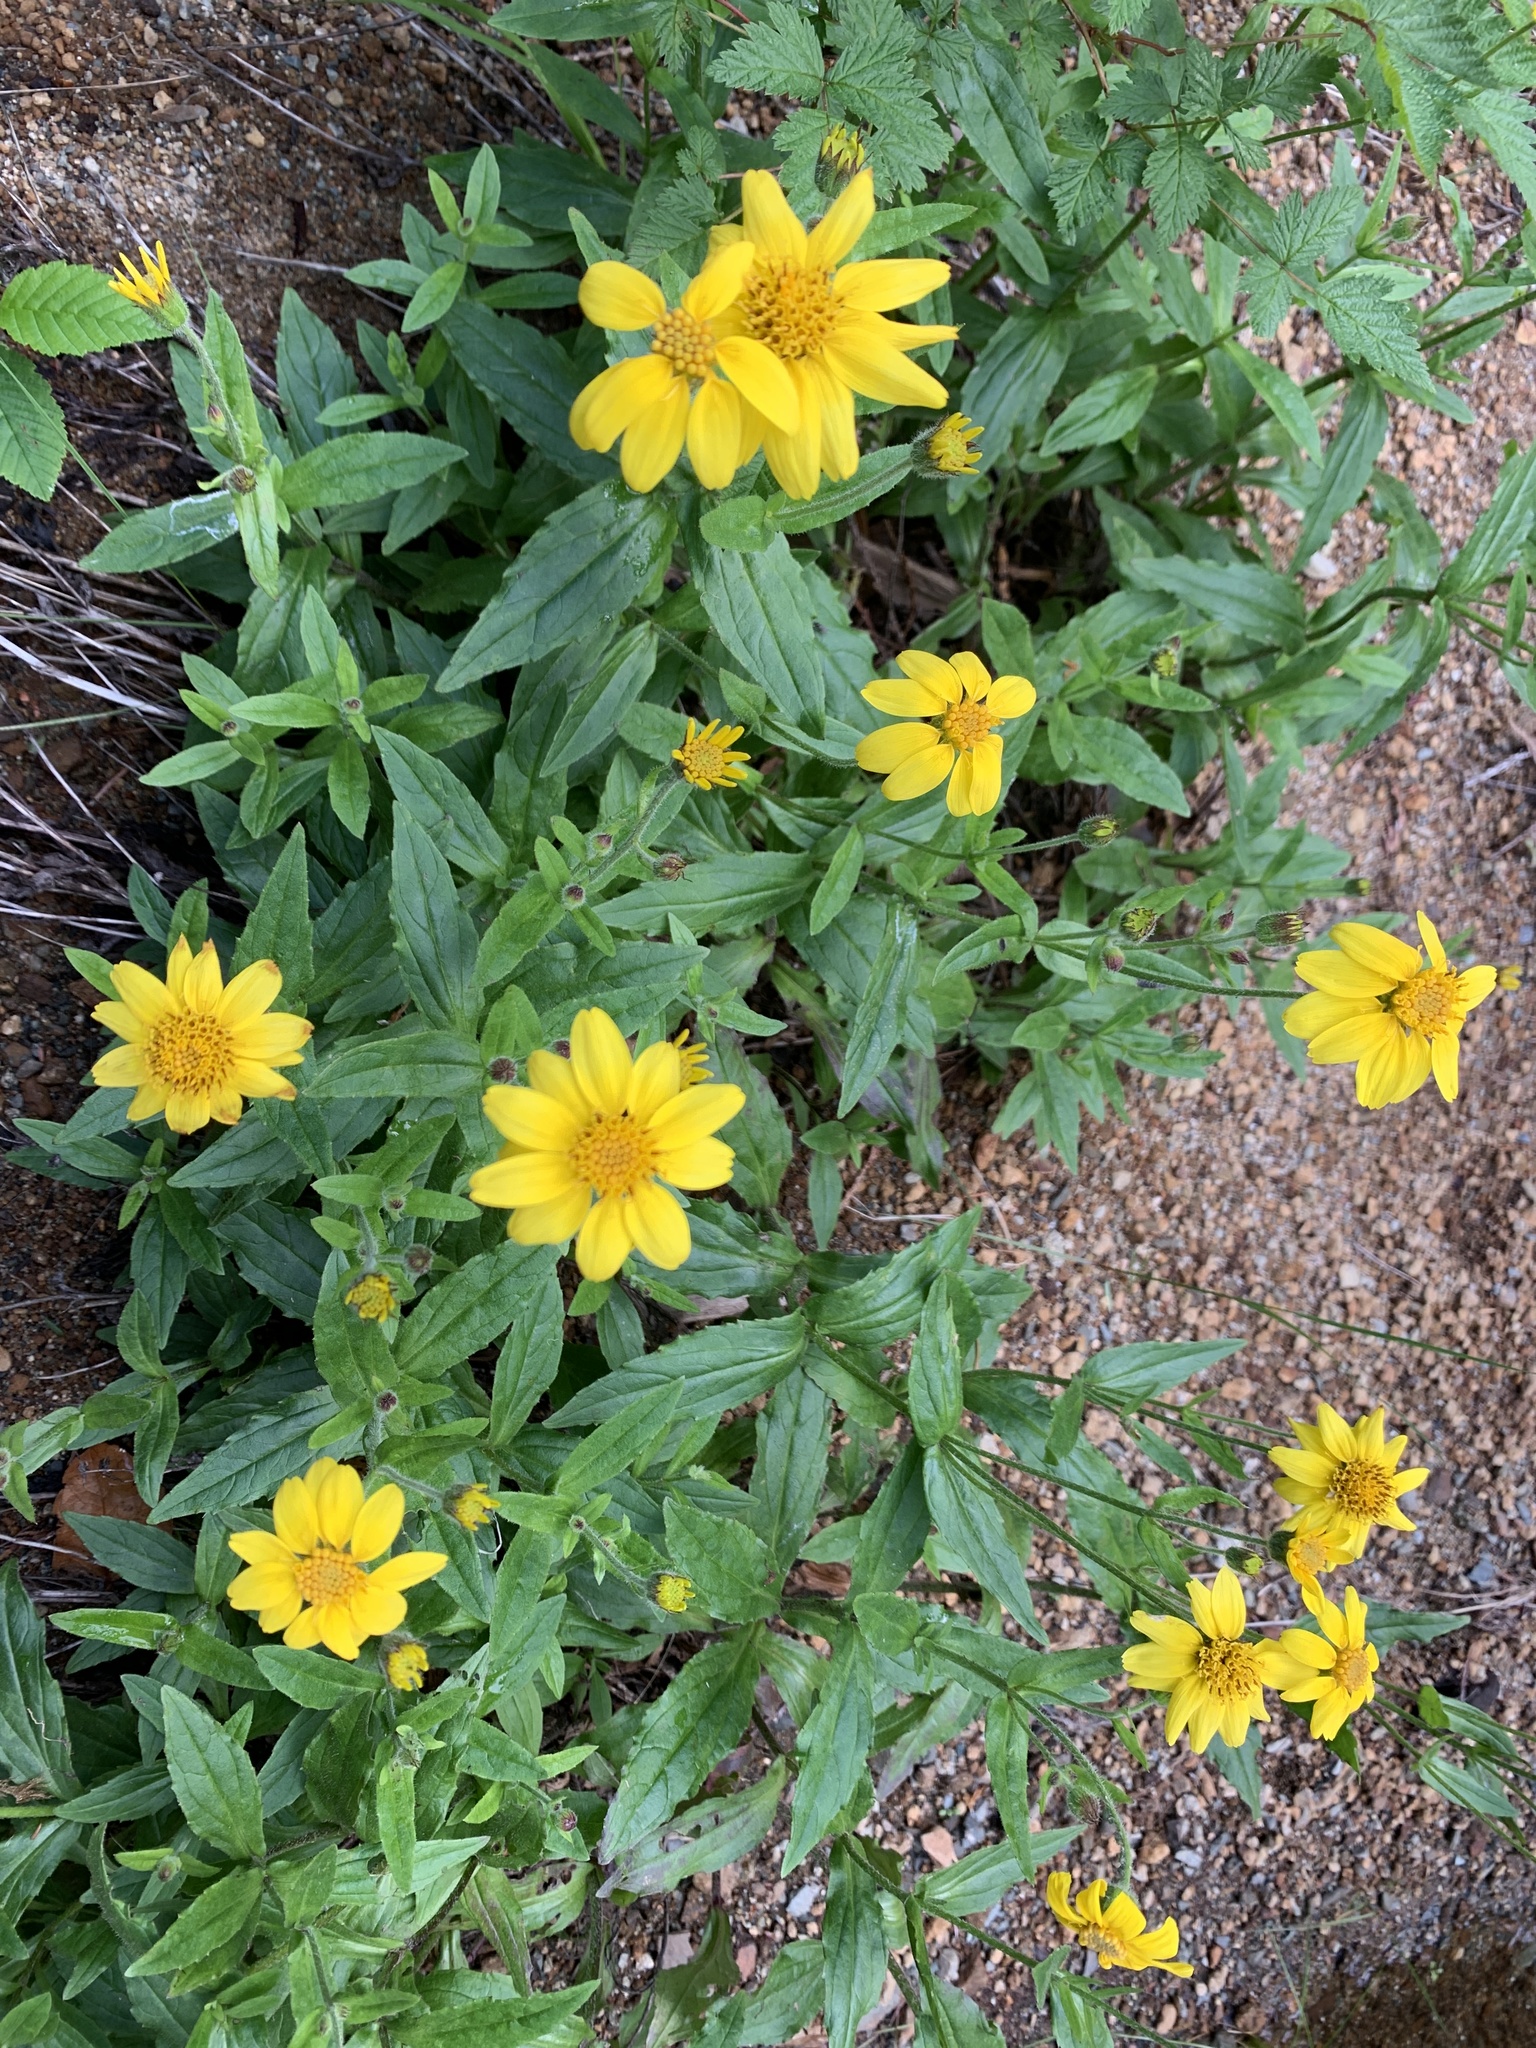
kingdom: Plantae
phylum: Tracheophyta
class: Magnoliopsida
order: Asterales
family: Asteraceae
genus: Arnica
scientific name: Arnica lanceolata
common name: Lance-leaved arnica
